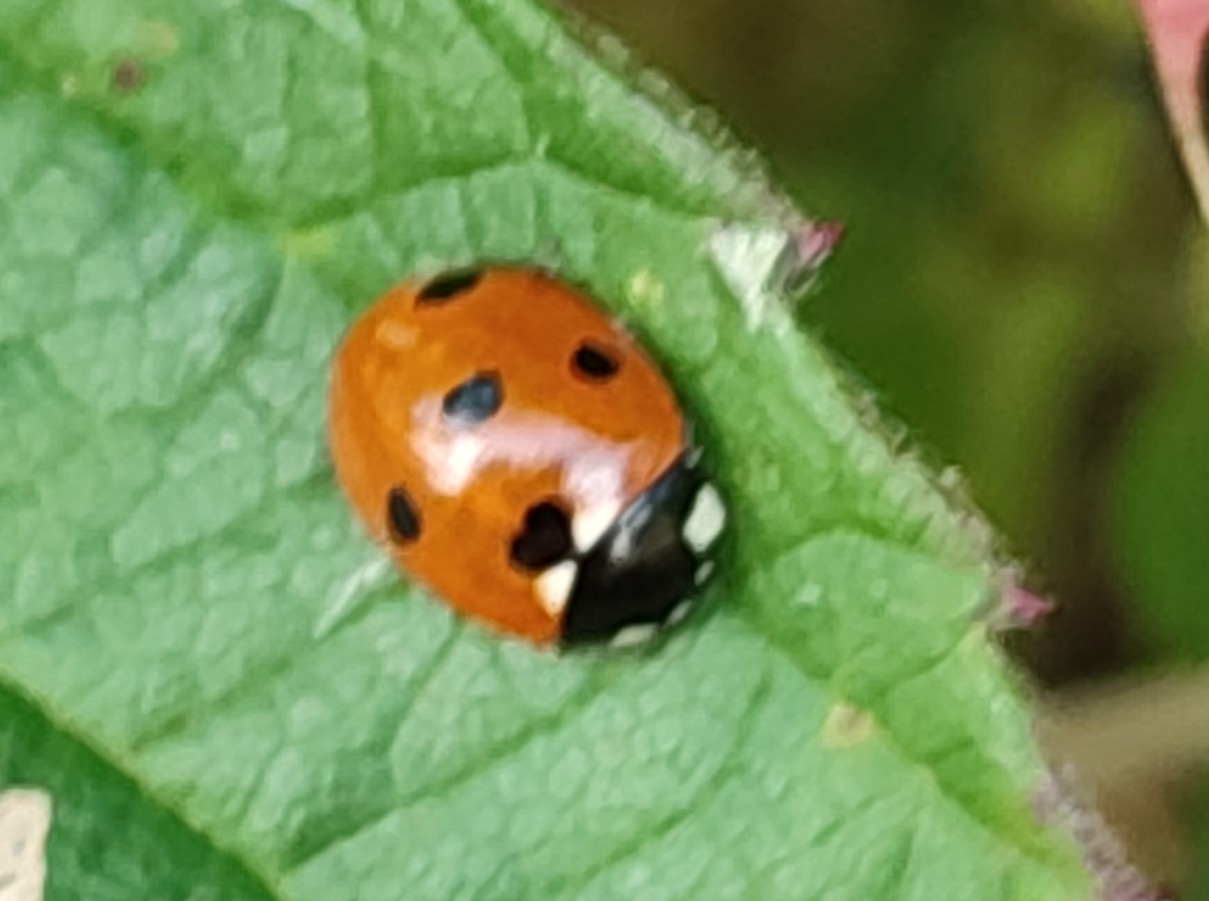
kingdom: Animalia
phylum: Arthropoda
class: Insecta
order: Coleoptera
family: Coccinellidae
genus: Coccinella
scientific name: Coccinella septempunctata
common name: Sevenspotted lady beetle
